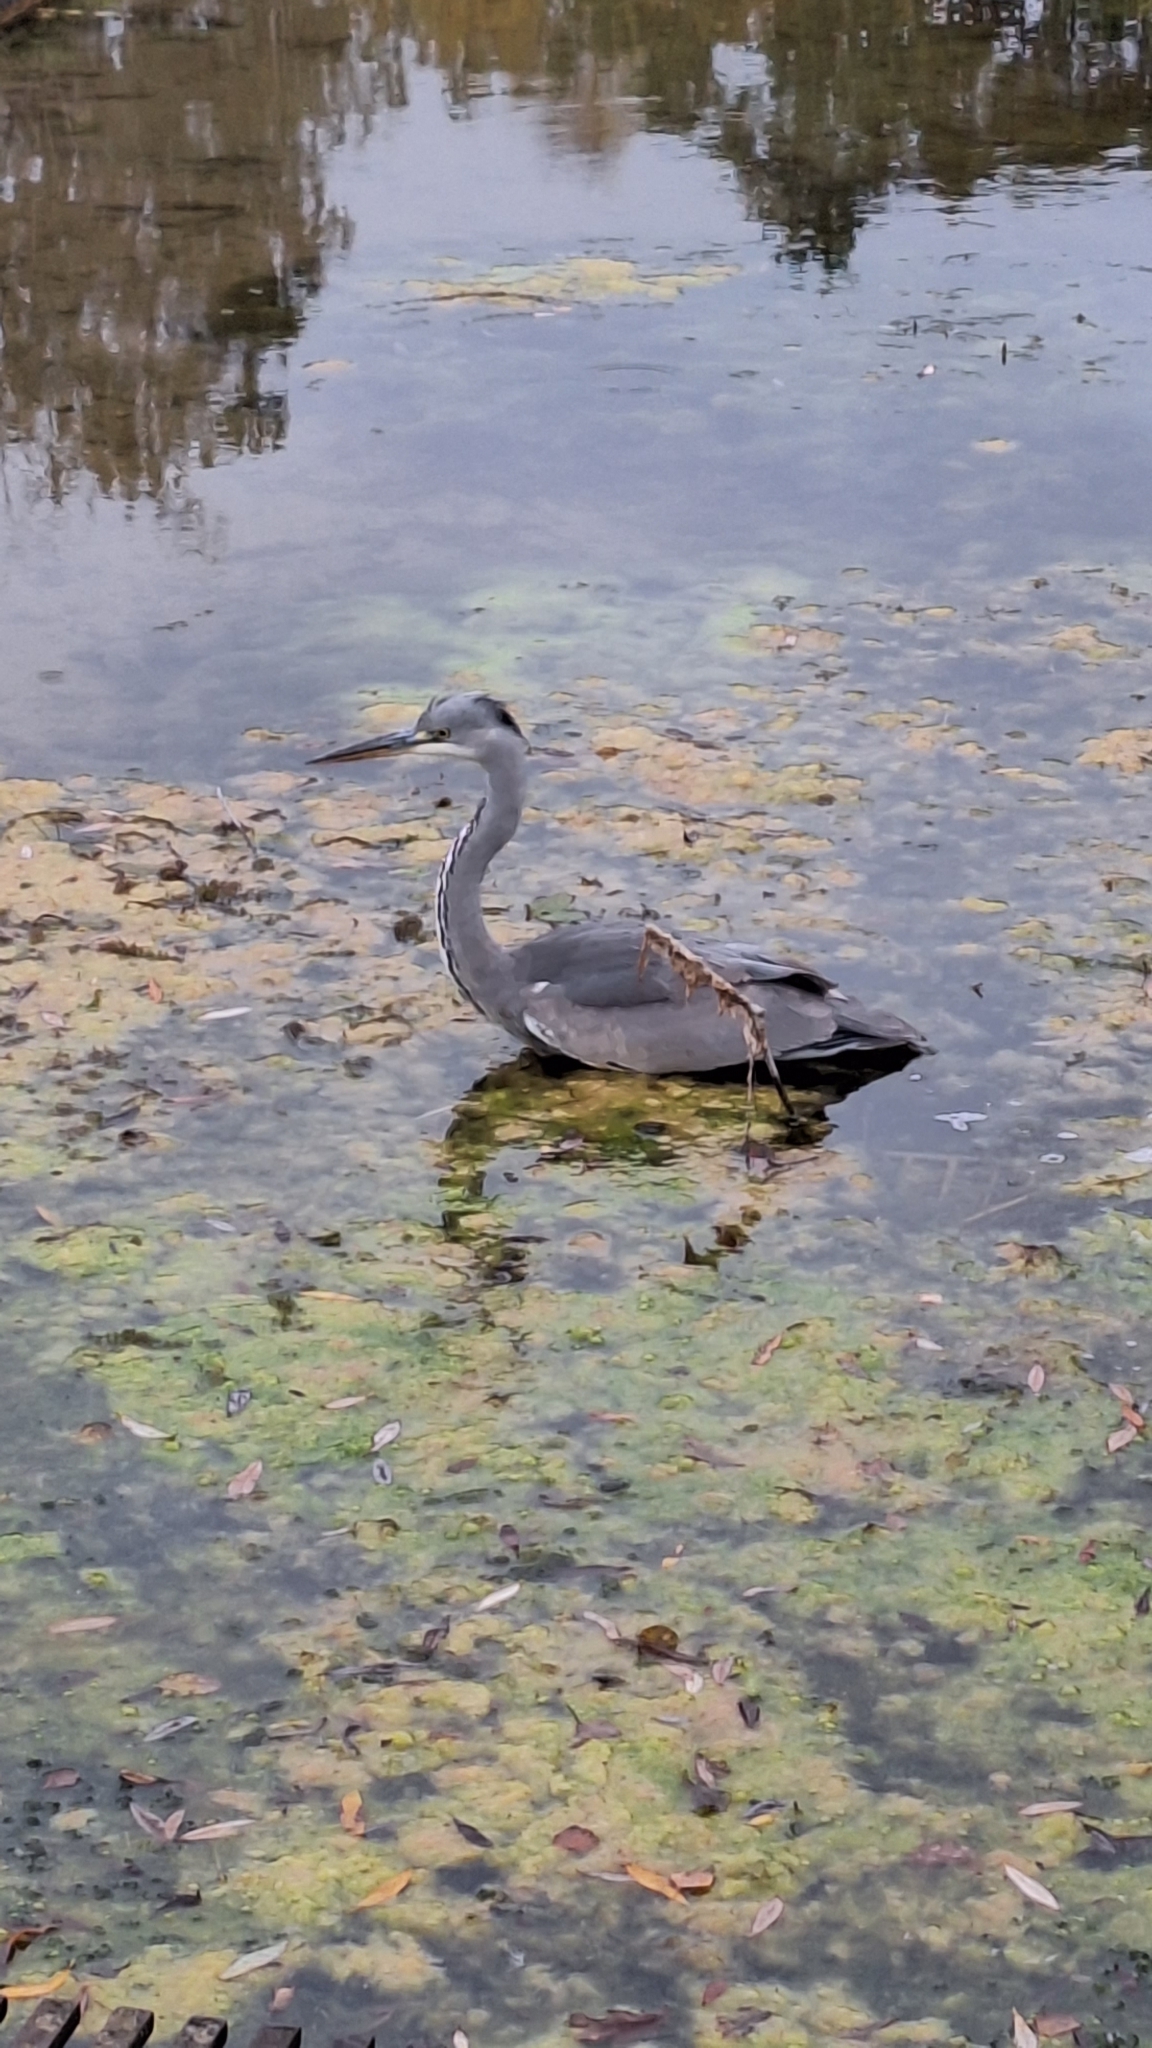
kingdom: Animalia
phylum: Chordata
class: Aves
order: Pelecaniformes
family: Ardeidae
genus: Ardea
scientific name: Ardea cinerea
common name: Grey heron
